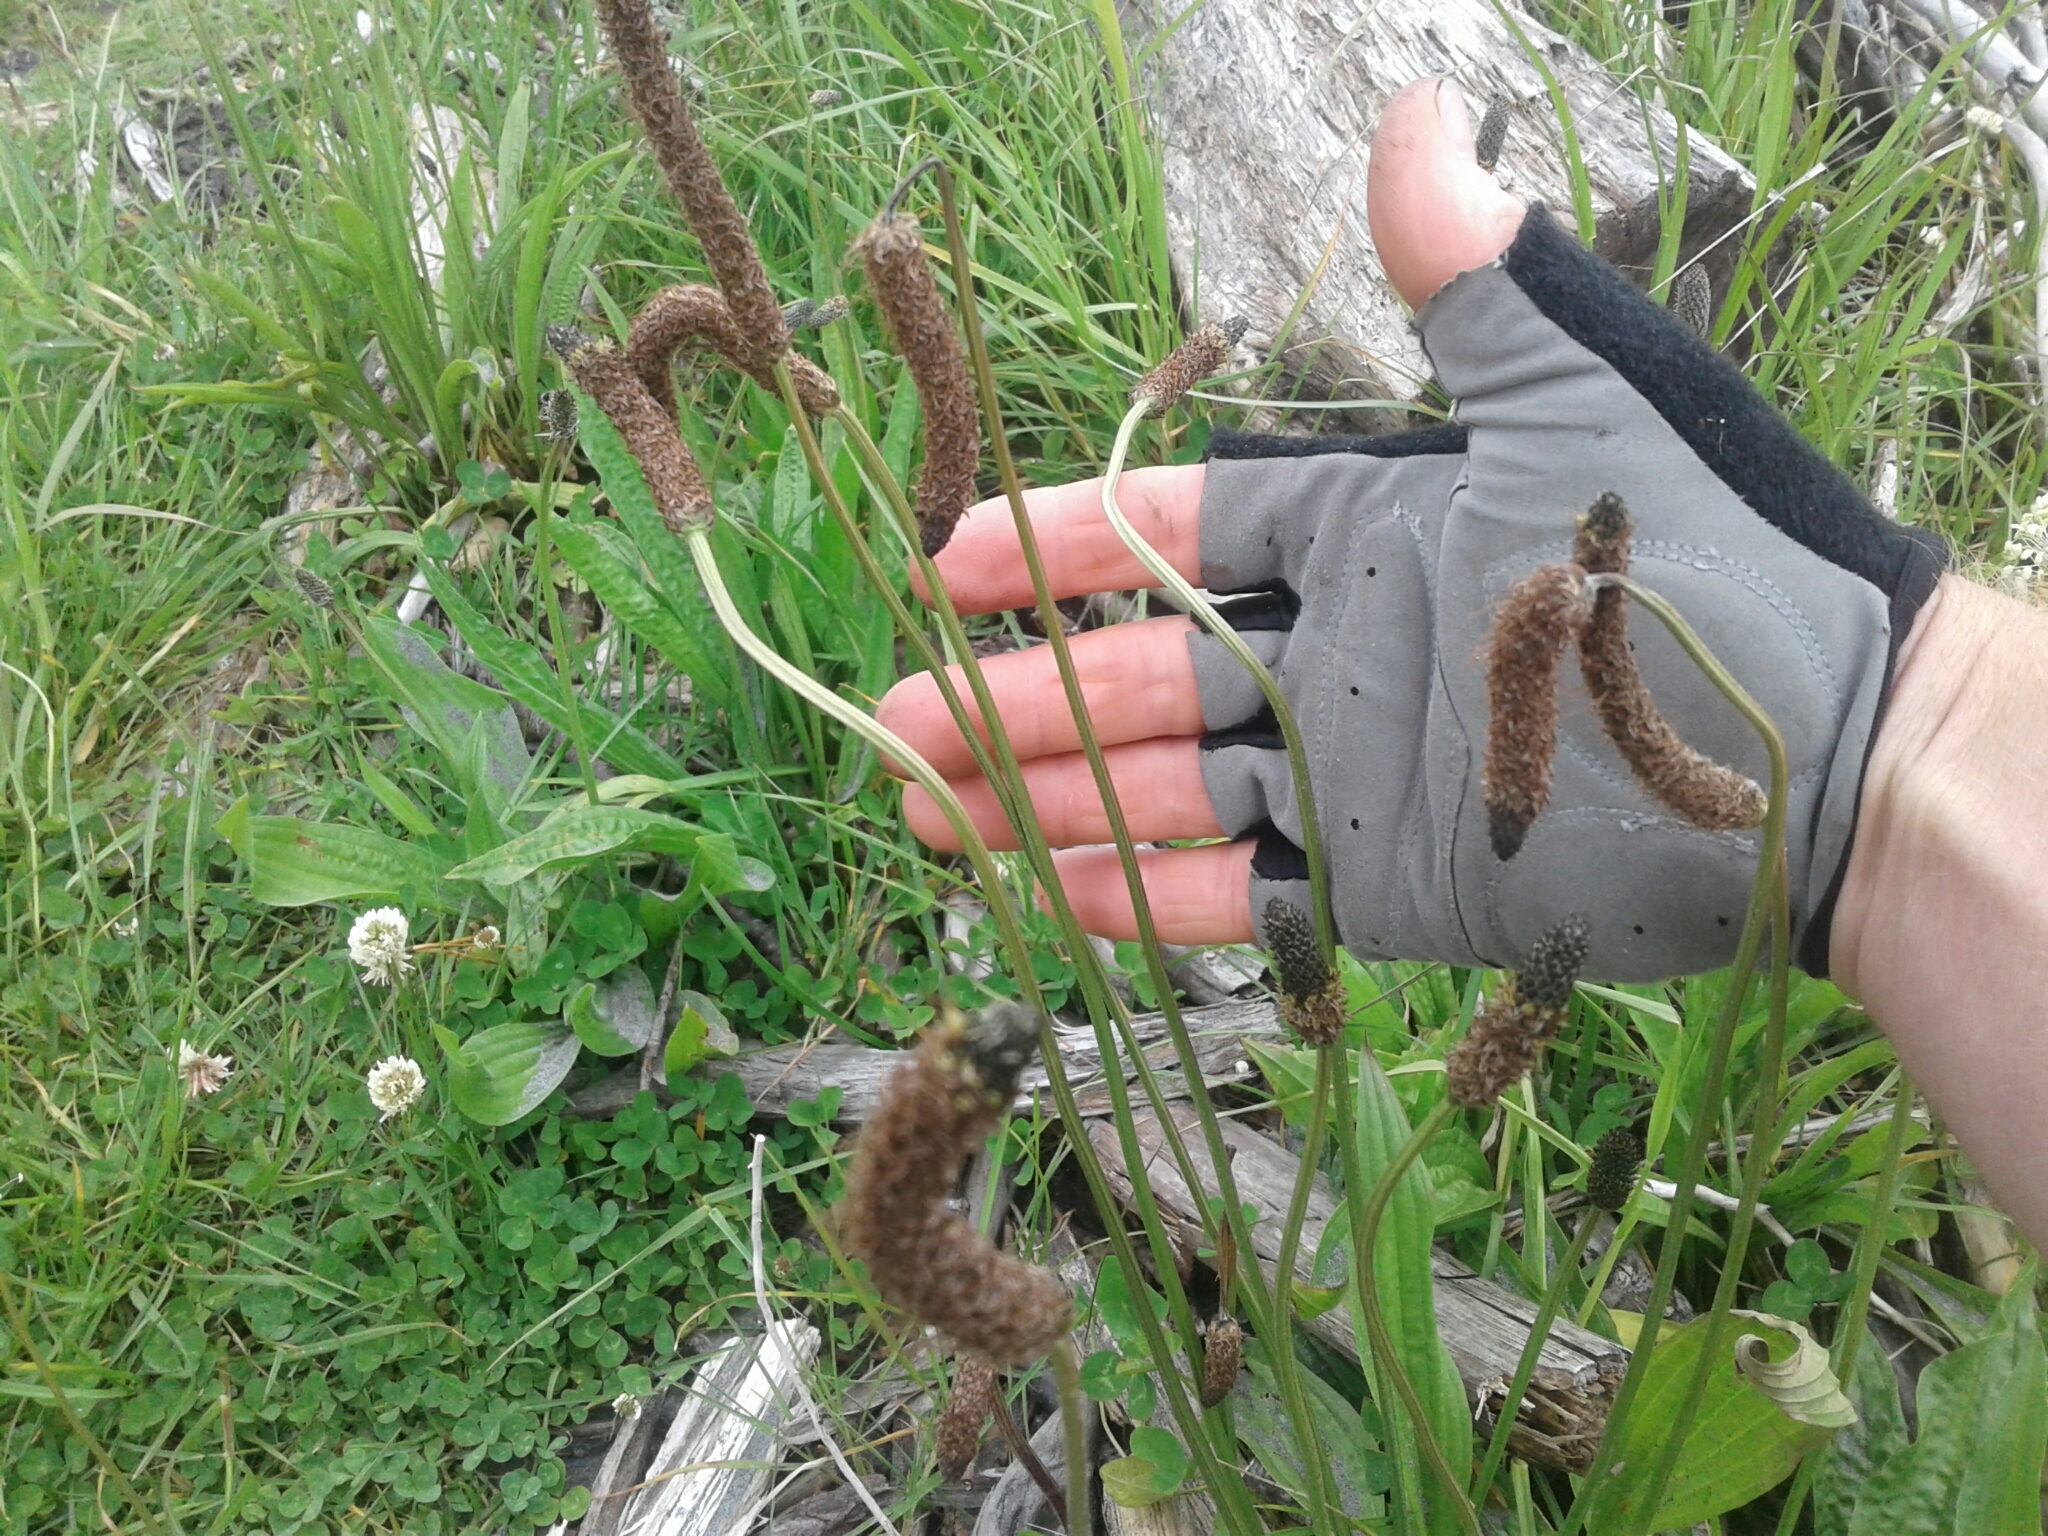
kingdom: Plantae
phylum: Tracheophyta
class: Magnoliopsida
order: Lamiales
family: Plantaginaceae
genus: Plantago
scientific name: Plantago lanceolata
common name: Ribwort plantain
